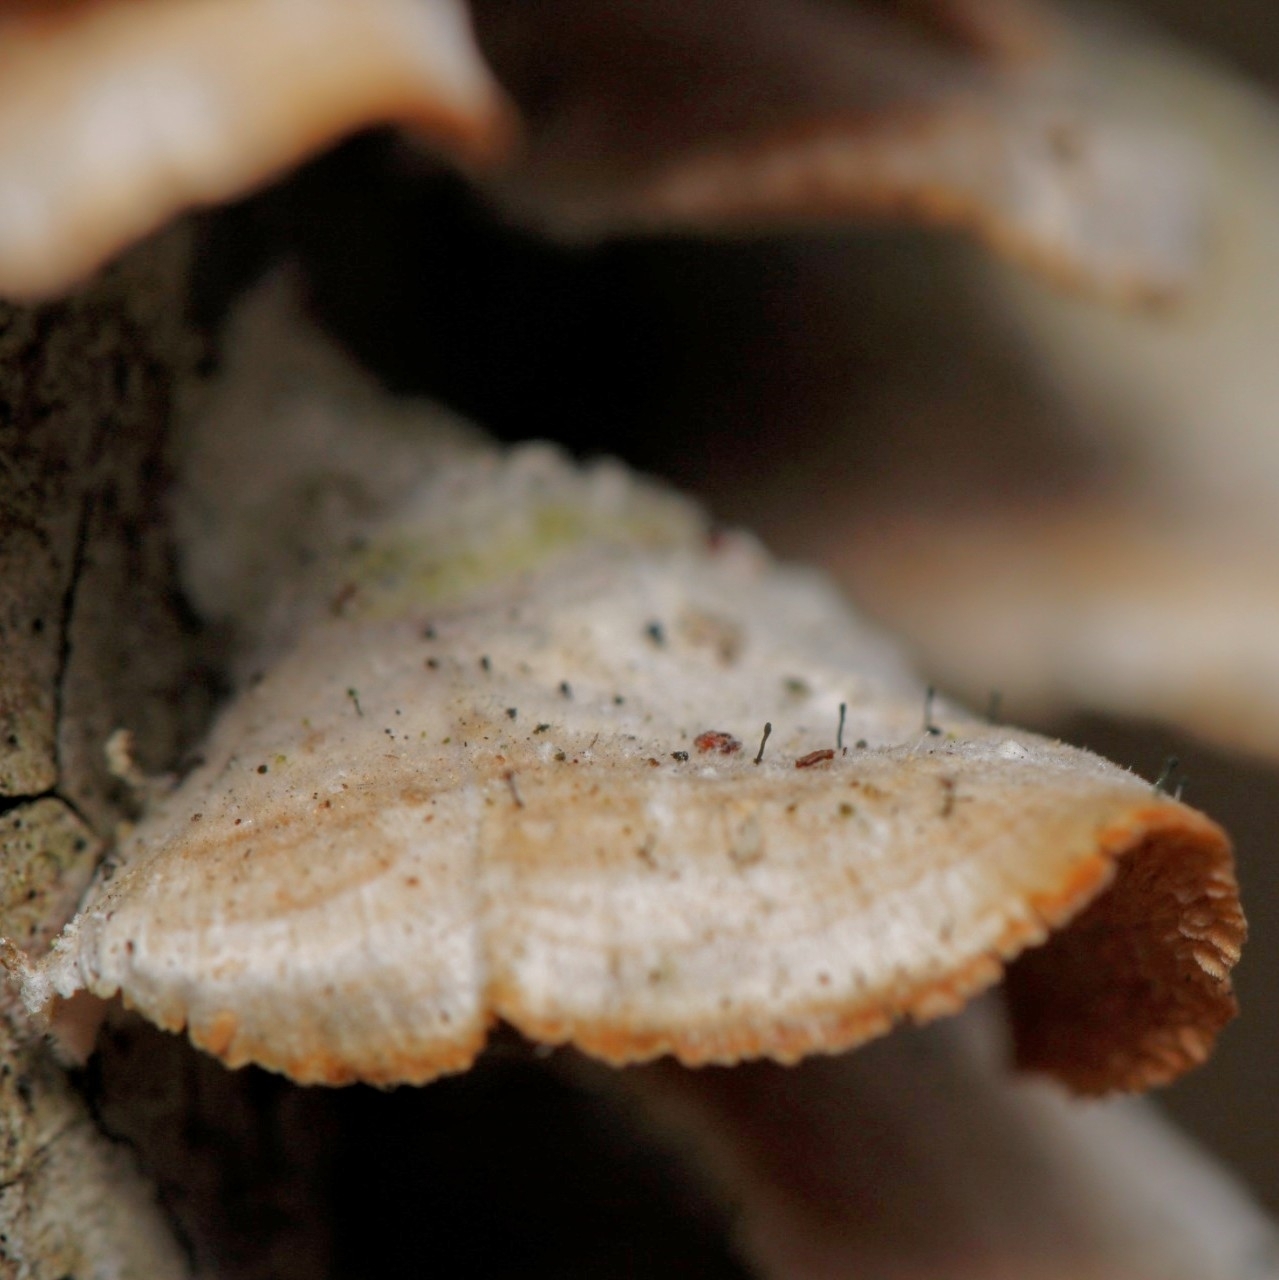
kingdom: Fungi
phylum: Ascomycota
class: Eurotiomycetes
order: Mycocaliciales
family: Mycocaliciaceae
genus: Phaeocalicium
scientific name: Phaeocalicium polyporaeum
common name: Fairy pins
